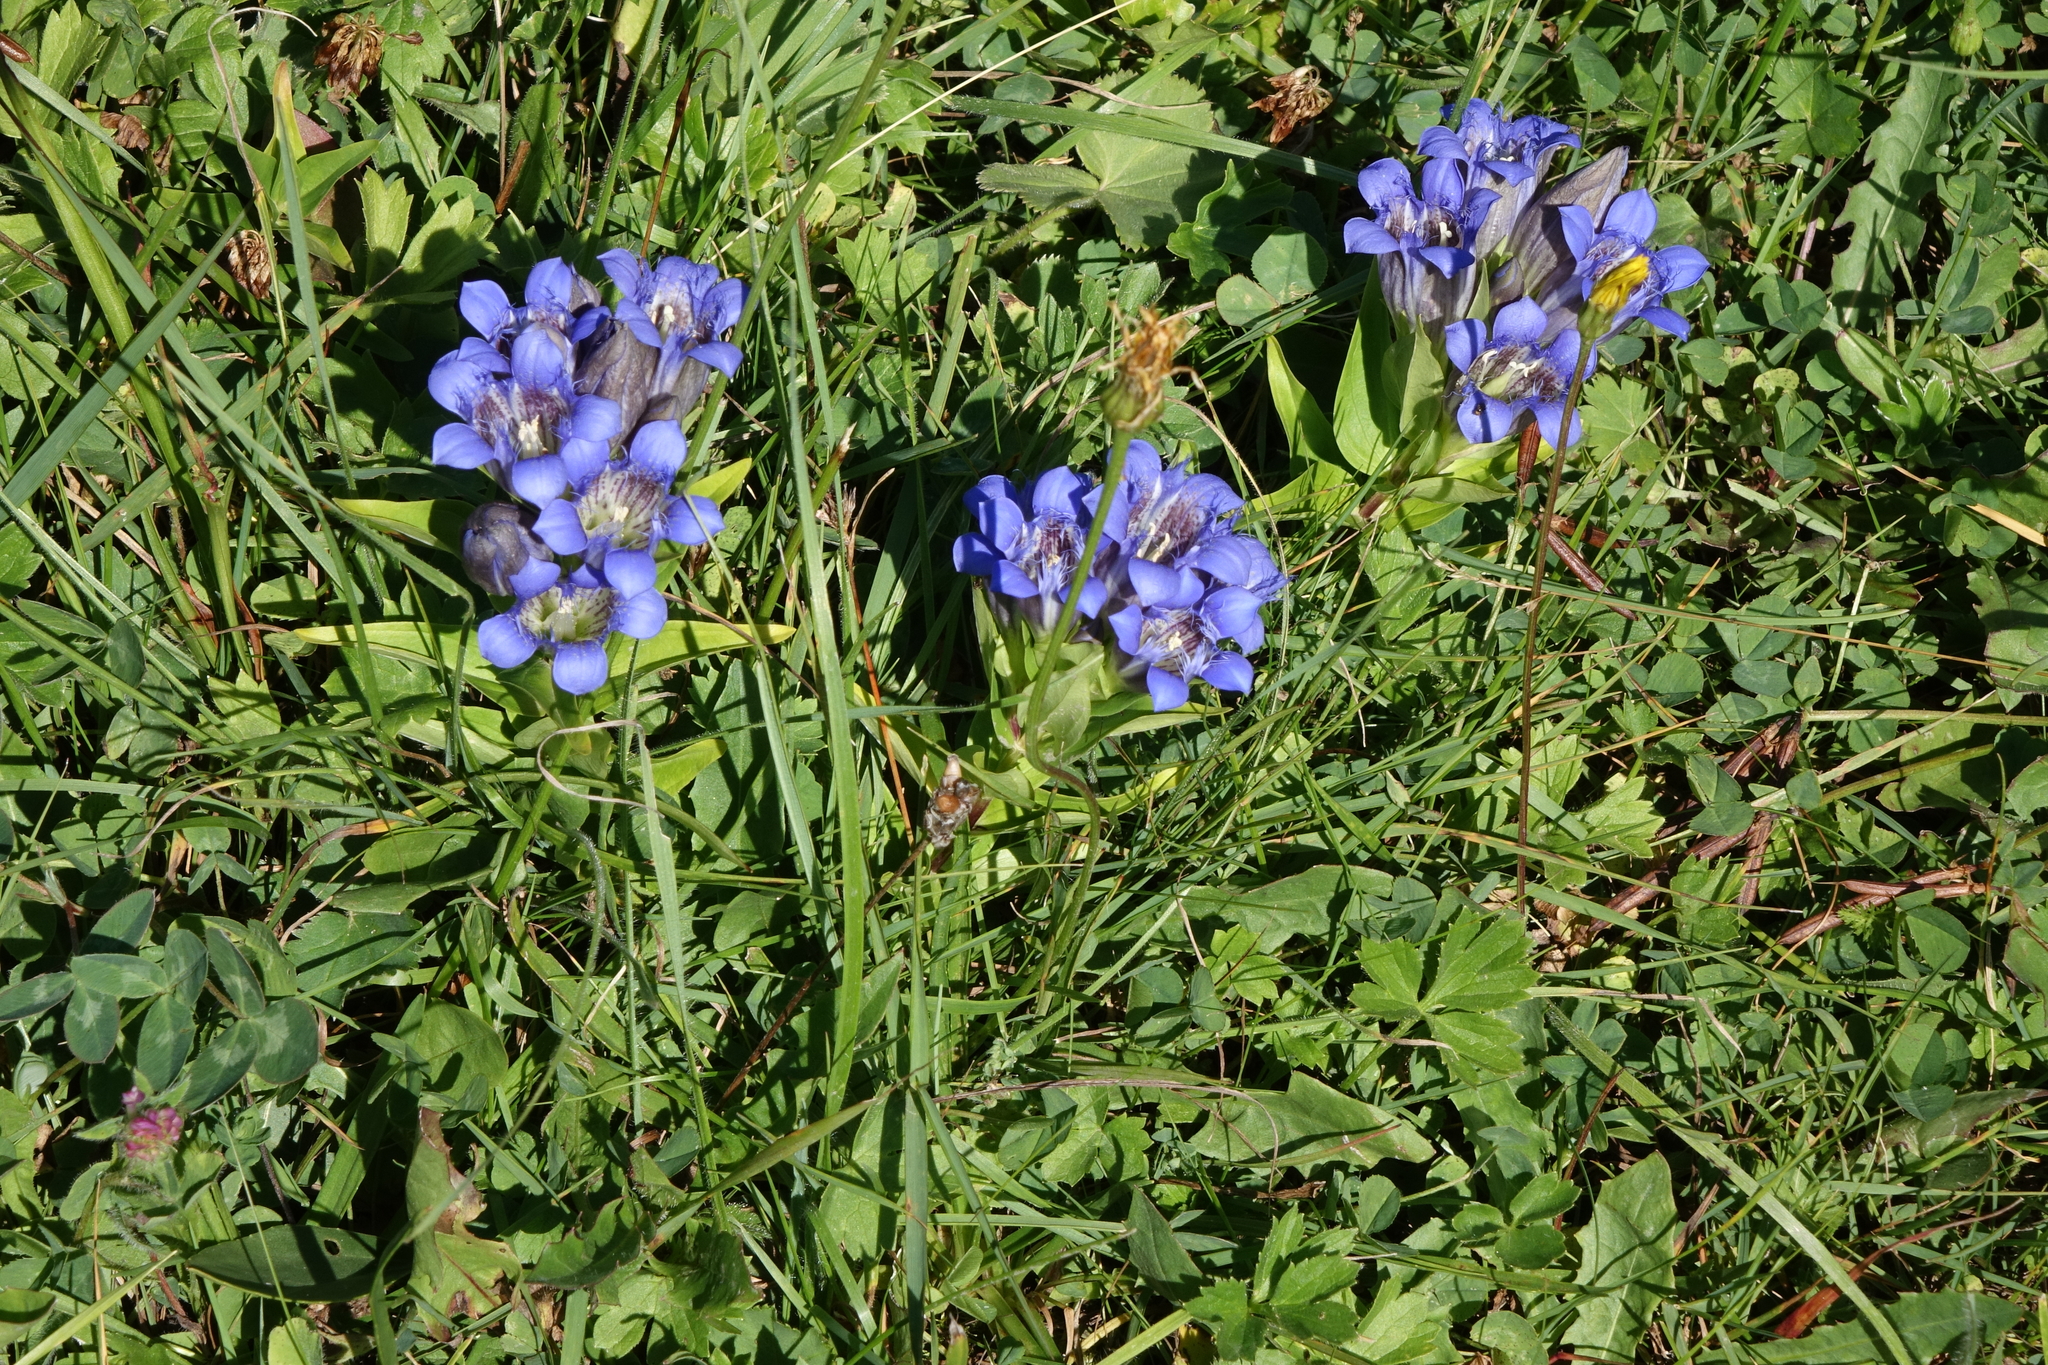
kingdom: Plantae
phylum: Tracheophyta
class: Magnoliopsida
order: Gentianales
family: Gentianaceae
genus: Gentiana
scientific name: Gentiana septemfida
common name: Crested gentian
